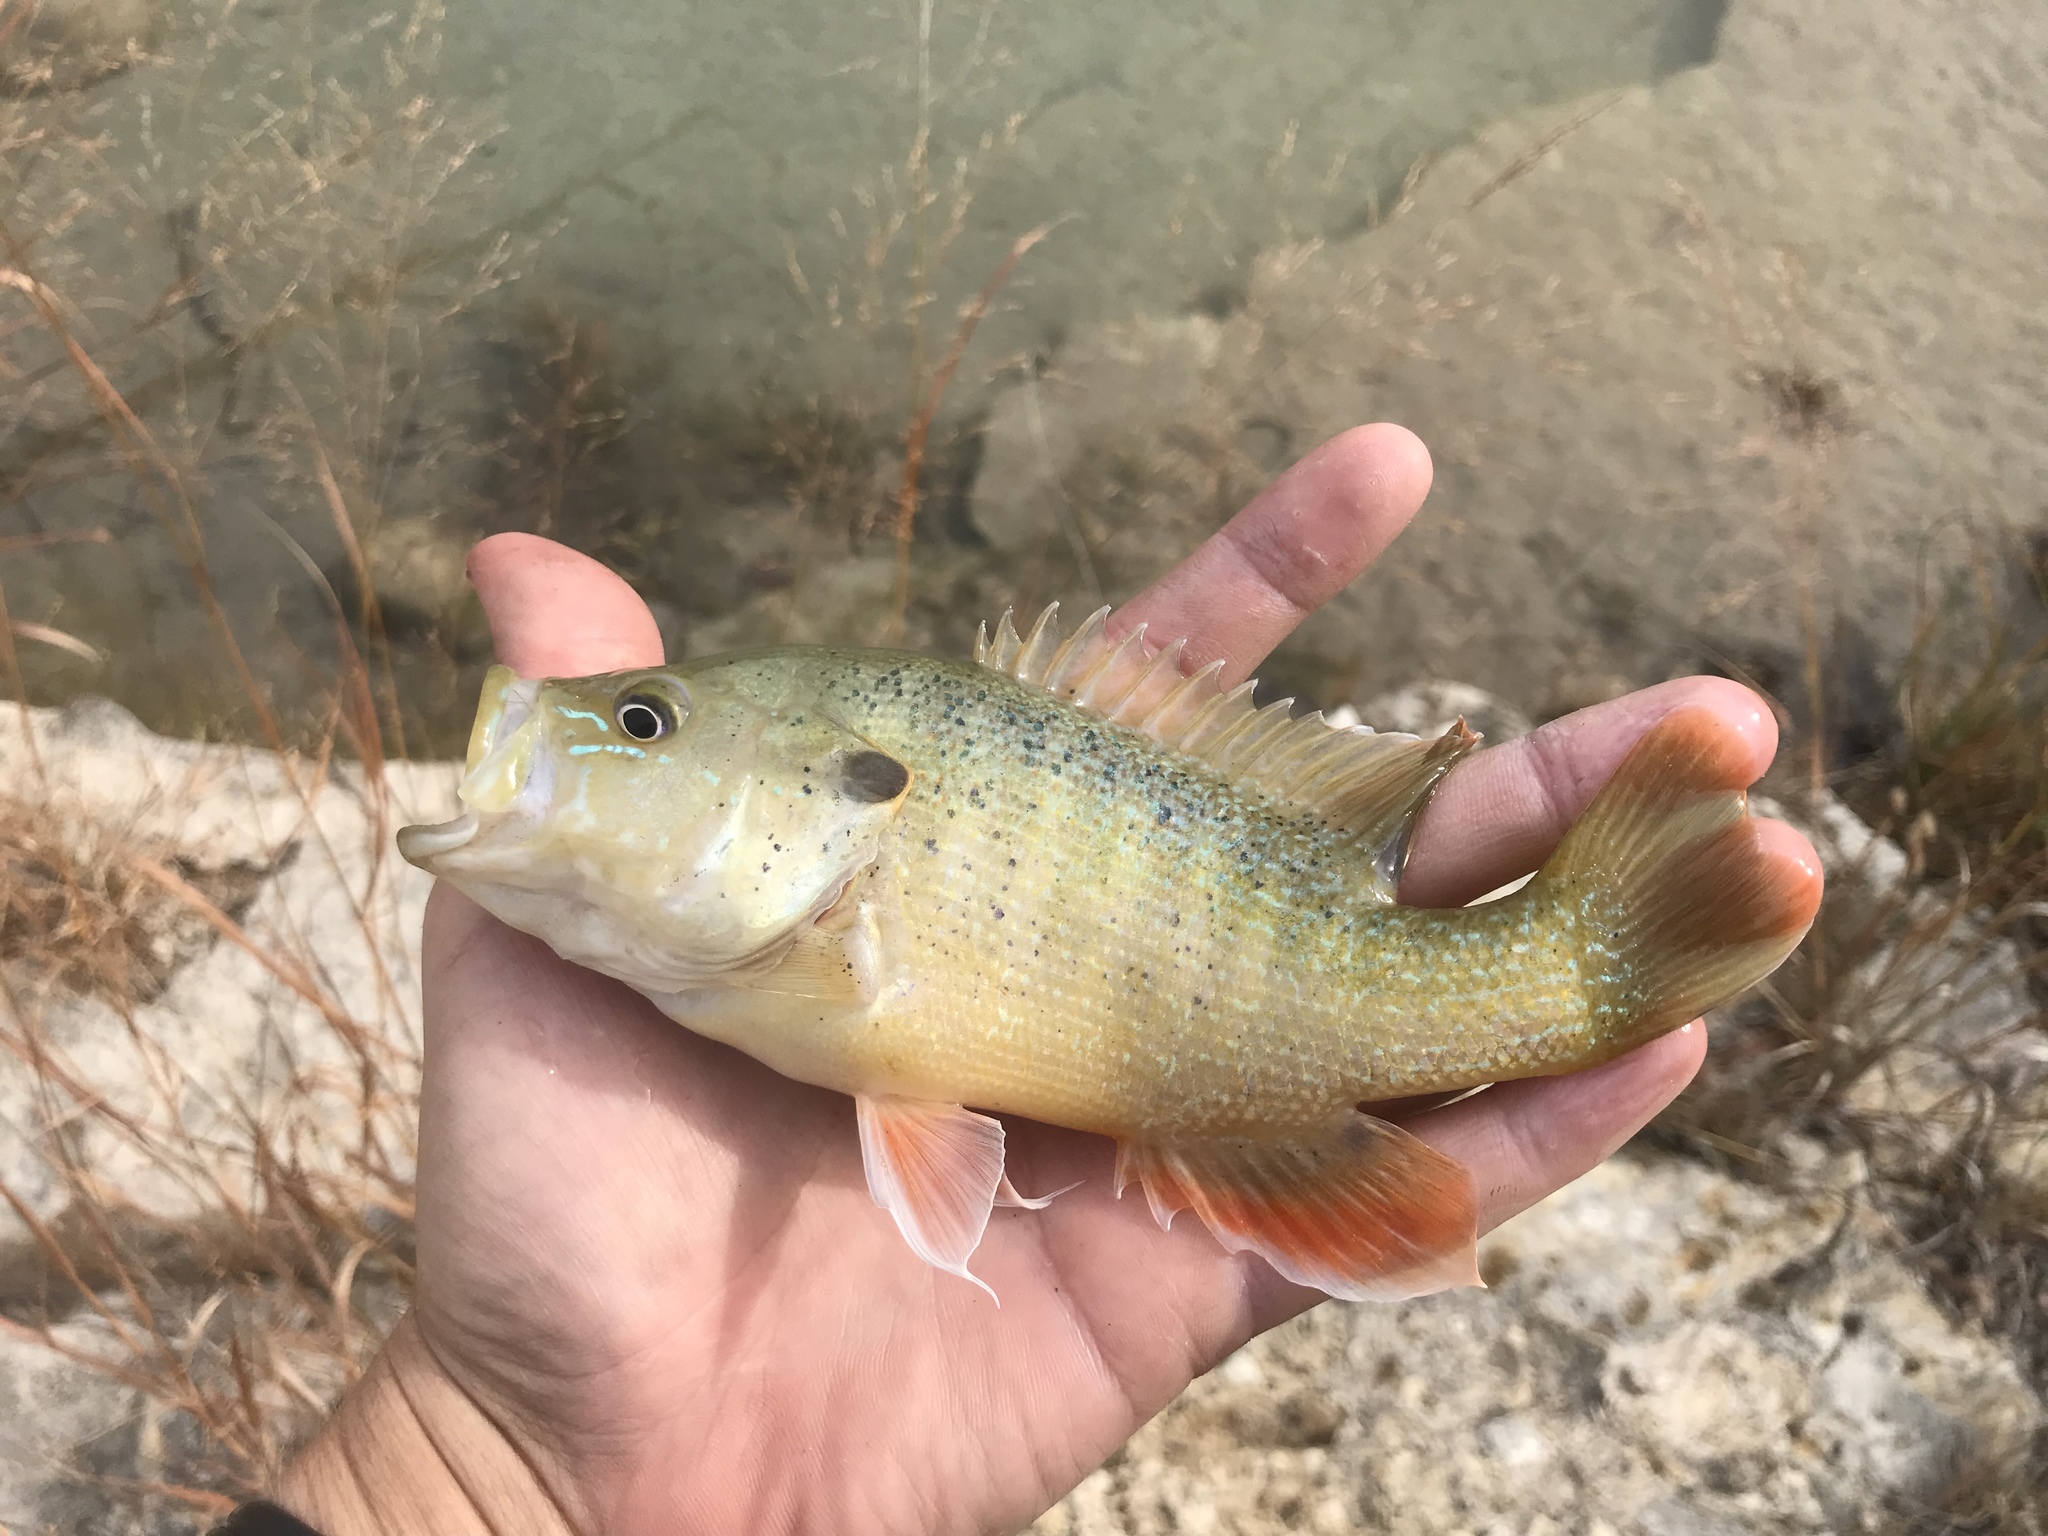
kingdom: Animalia
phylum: Chordata
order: Perciformes
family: Centrarchidae
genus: Lepomis
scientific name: Lepomis cyanellus
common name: Green sunfish
